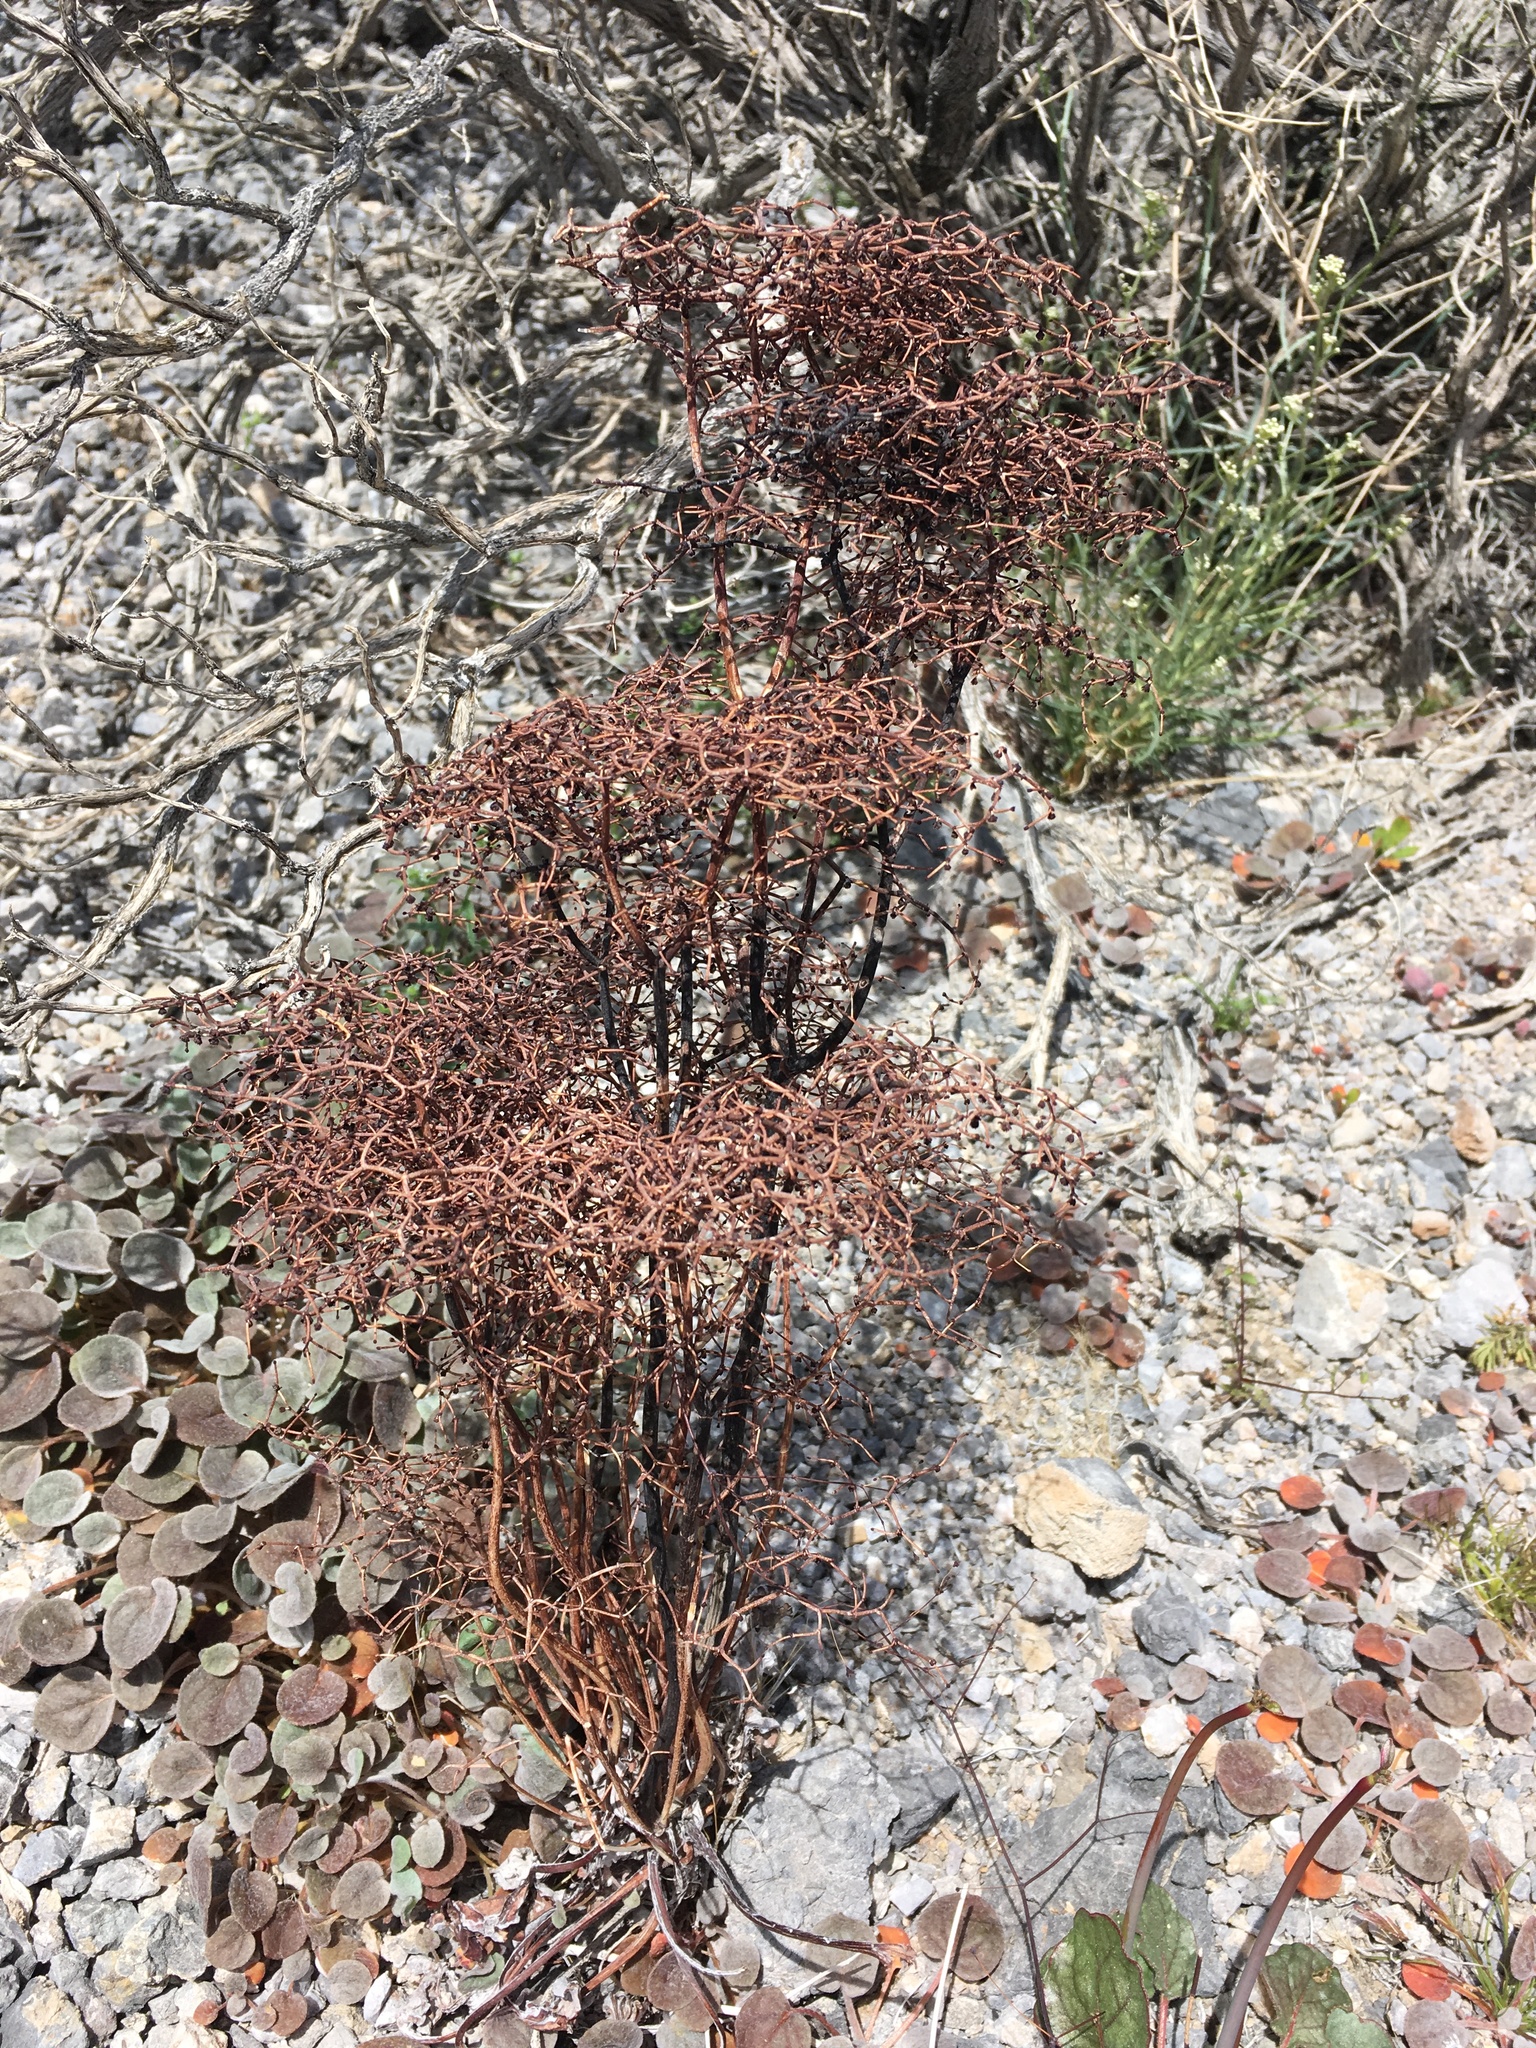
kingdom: Plantae
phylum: Tracheophyta
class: Magnoliopsida
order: Caryophyllales
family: Polygonaceae
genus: Eriogonum
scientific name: Eriogonum rixfordii
